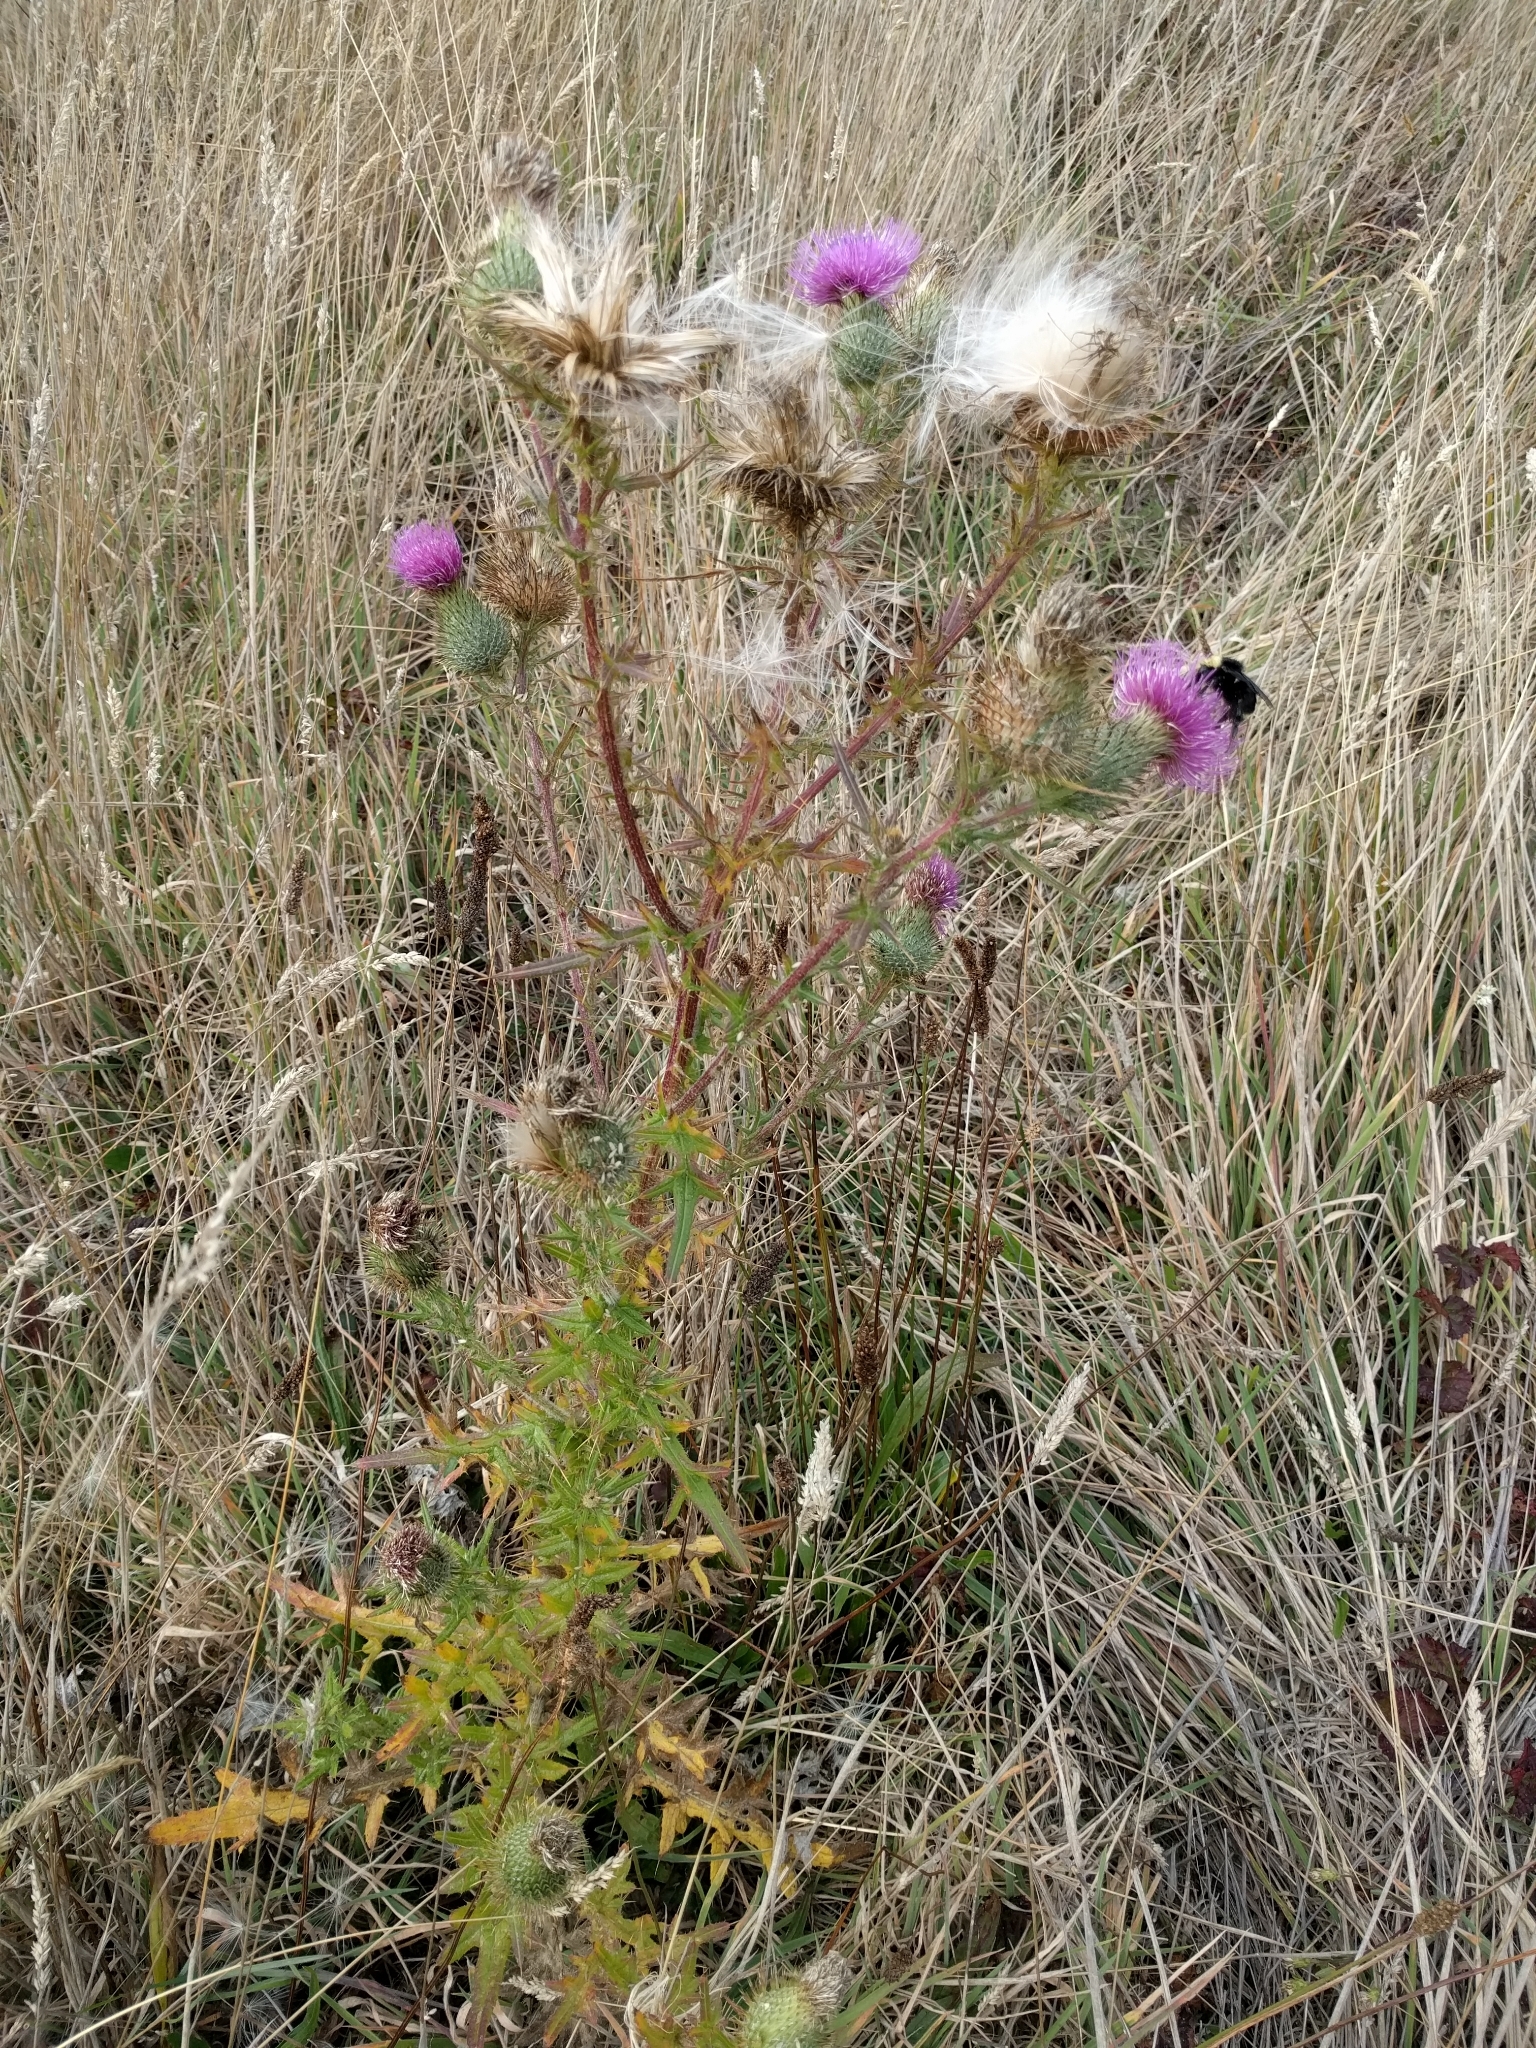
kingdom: Plantae
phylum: Tracheophyta
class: Magnoliopsida
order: Asterales
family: Asteraceae
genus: Cirsium
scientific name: Cirsium vulgare
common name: Bull thistle
